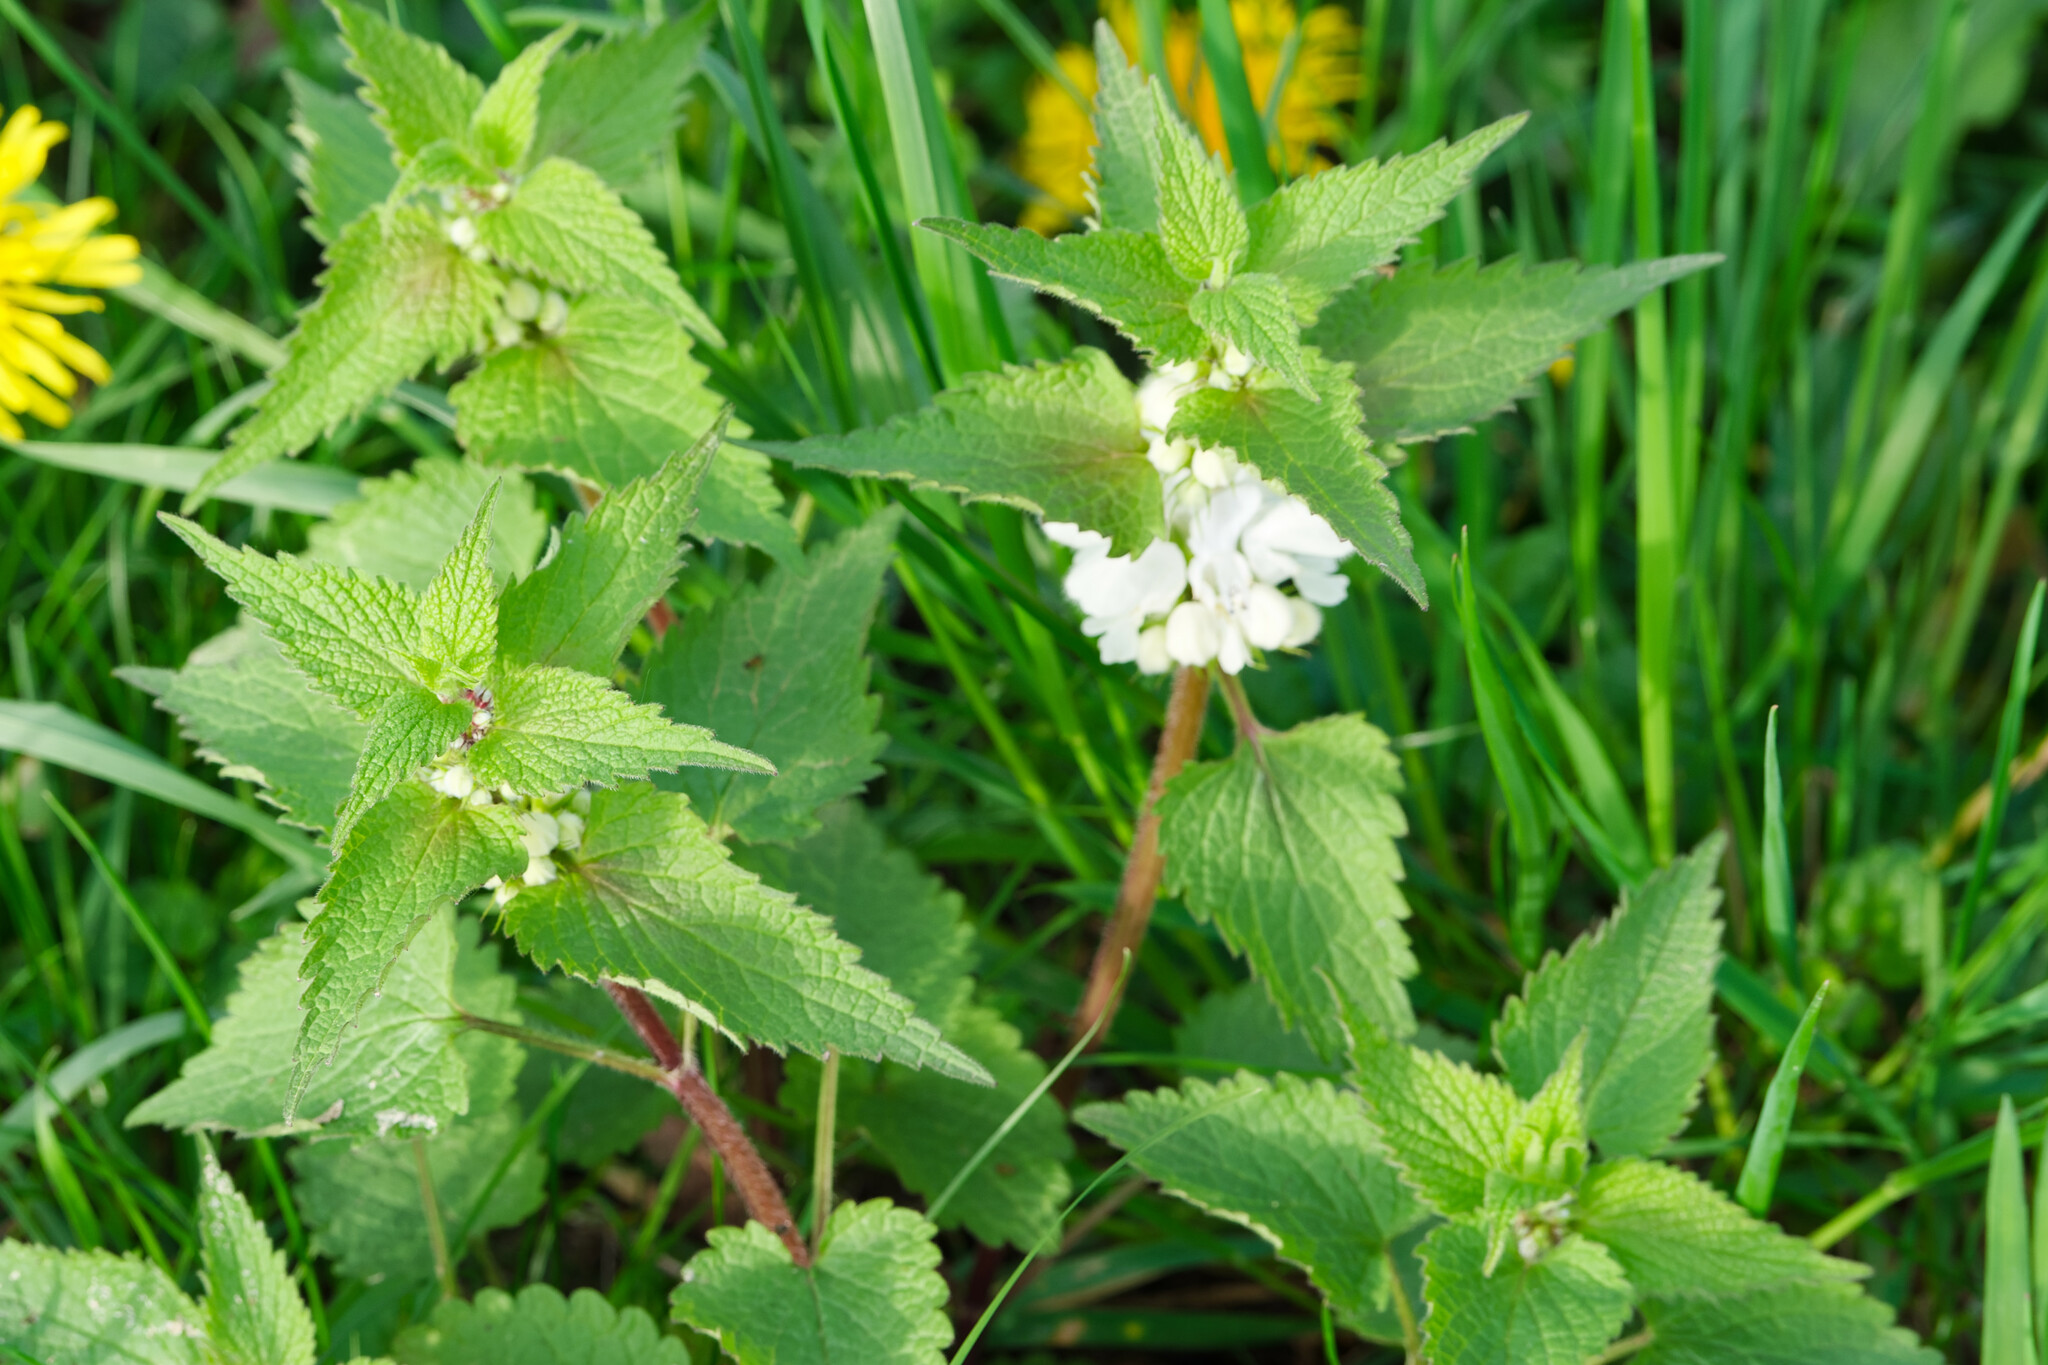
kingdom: Plantae
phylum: Tracheophyta
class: Magnoliopsida
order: Lamiales
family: Lamiaceae
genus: Lamium
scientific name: Lamium album
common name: White dead-nettle
